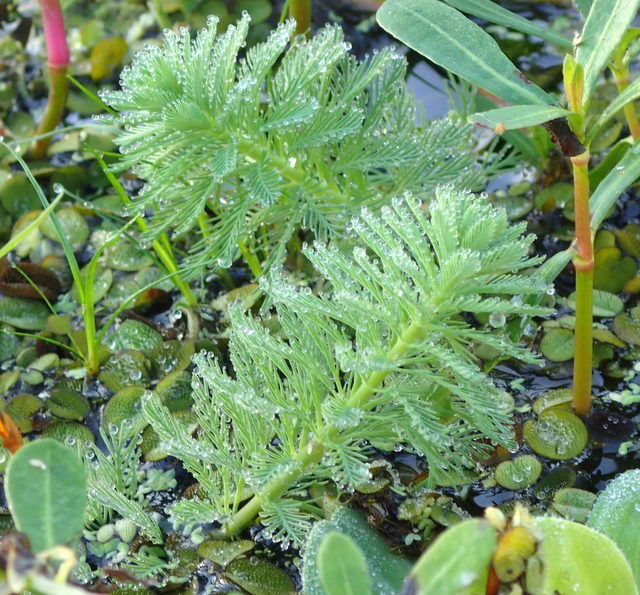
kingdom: Plantae
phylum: Tracheophyta
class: Magnoliopsida
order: Saxifragales
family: Haloragaceae
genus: Myriophyllum
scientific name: Myriophyllum aquaticum
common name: Parrot's feather
